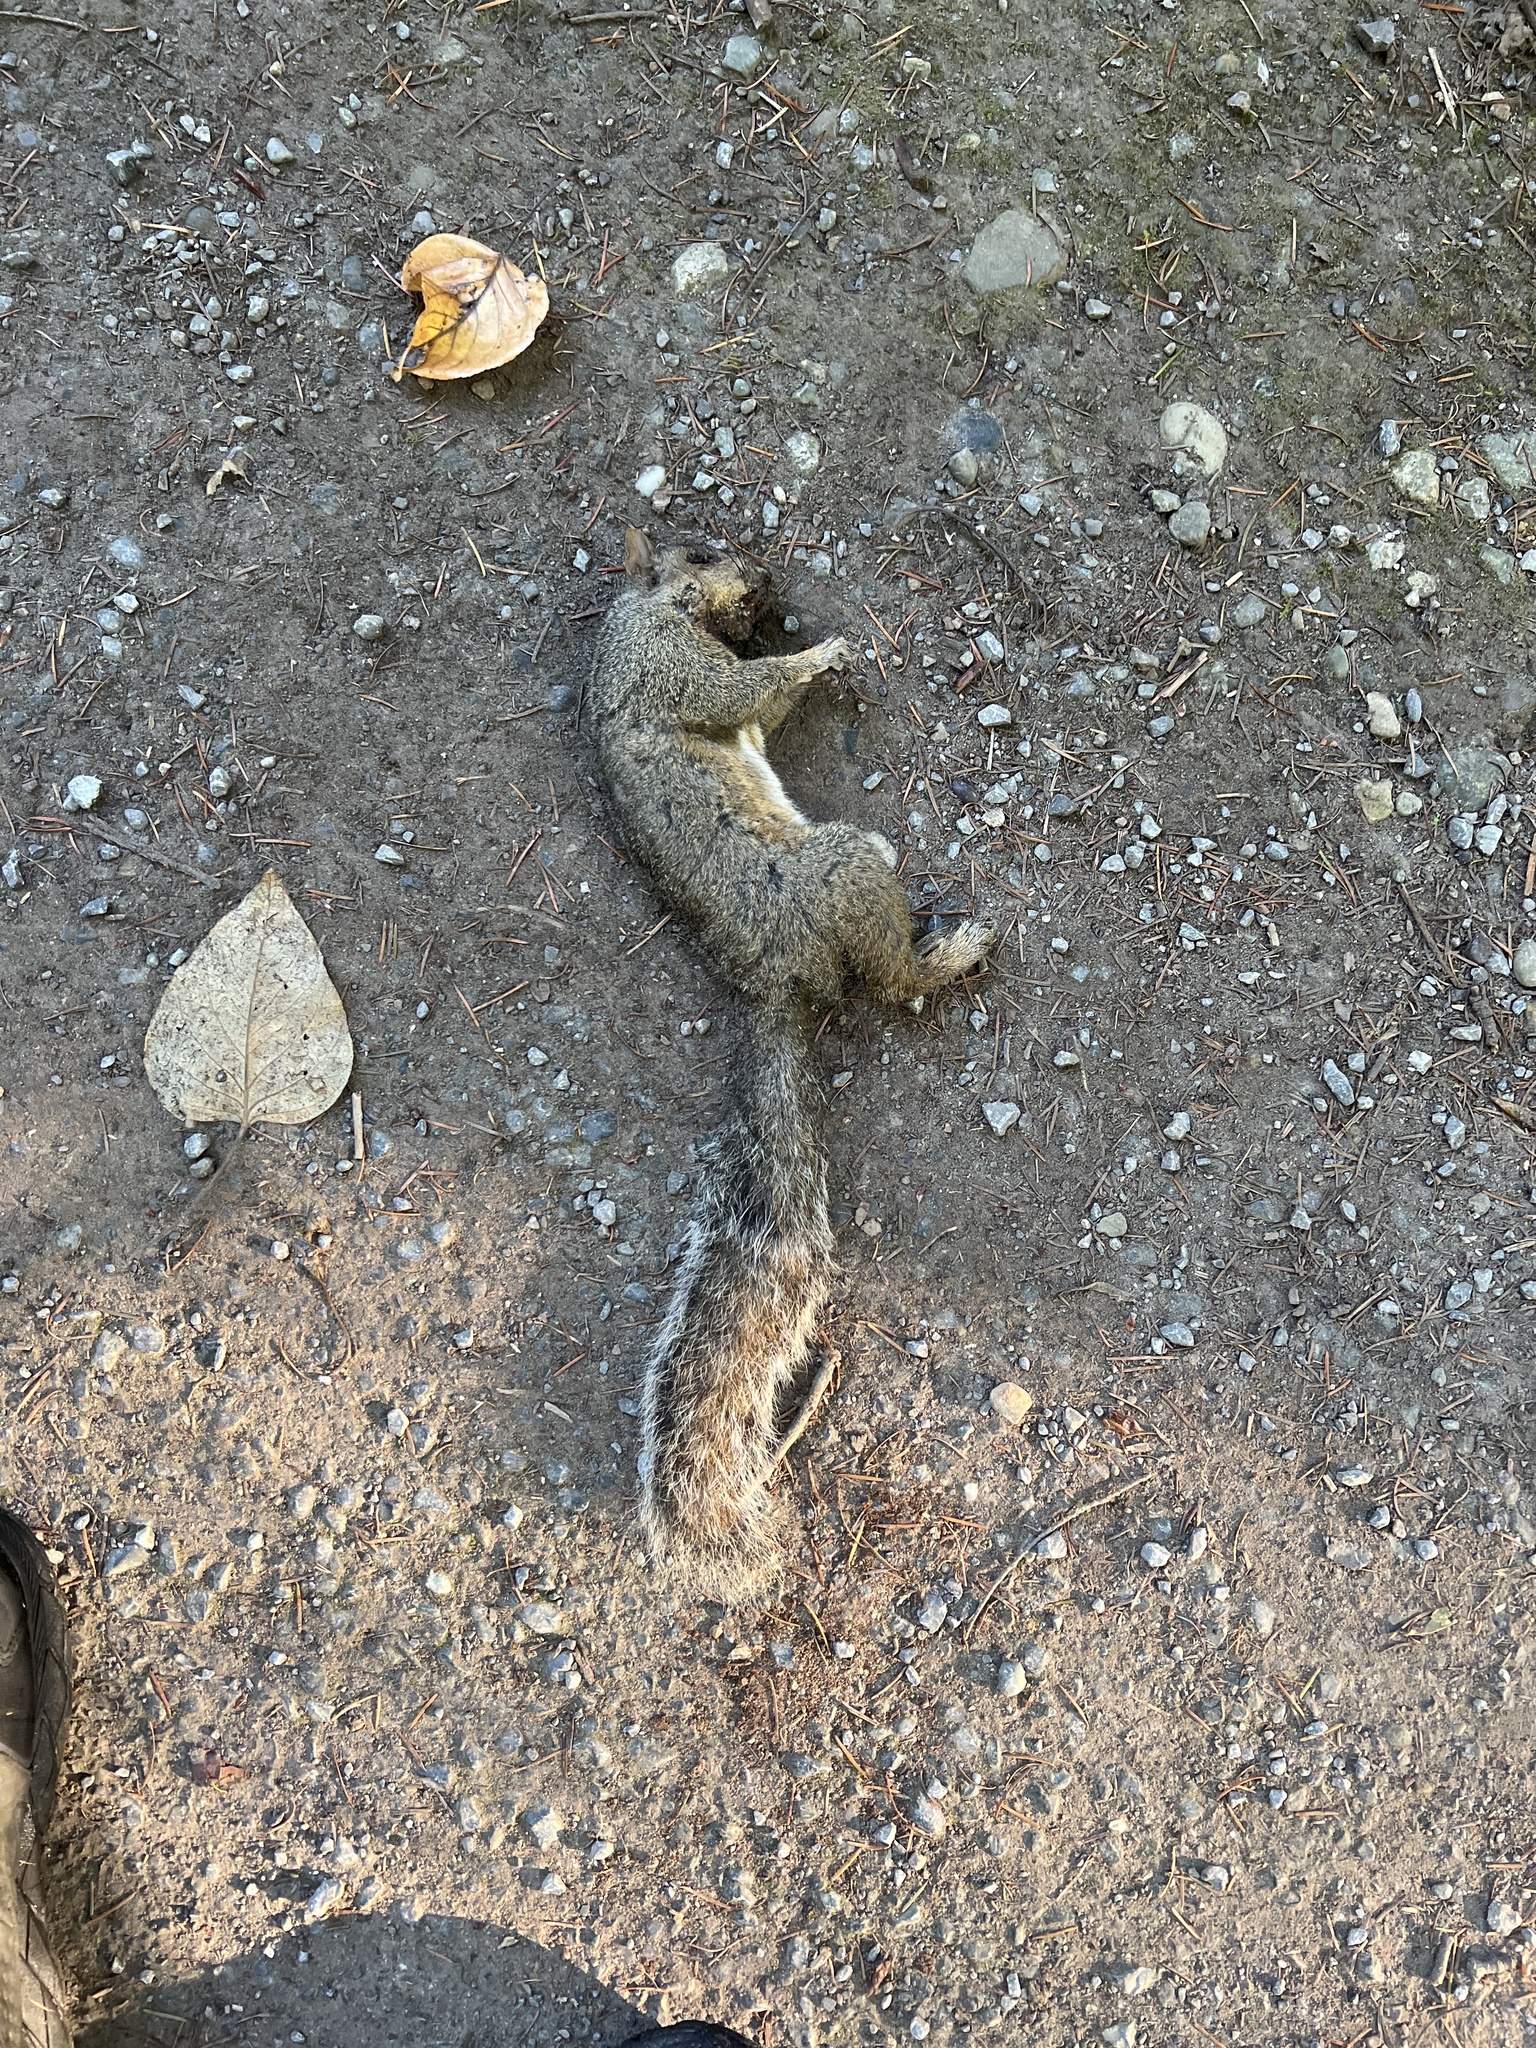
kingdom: Animalia
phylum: Chordata
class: Mammalia
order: Rodentia
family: Sciuridae
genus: Sciurus
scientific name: Sciurus carolinensis
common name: Eastern gray squirrel
